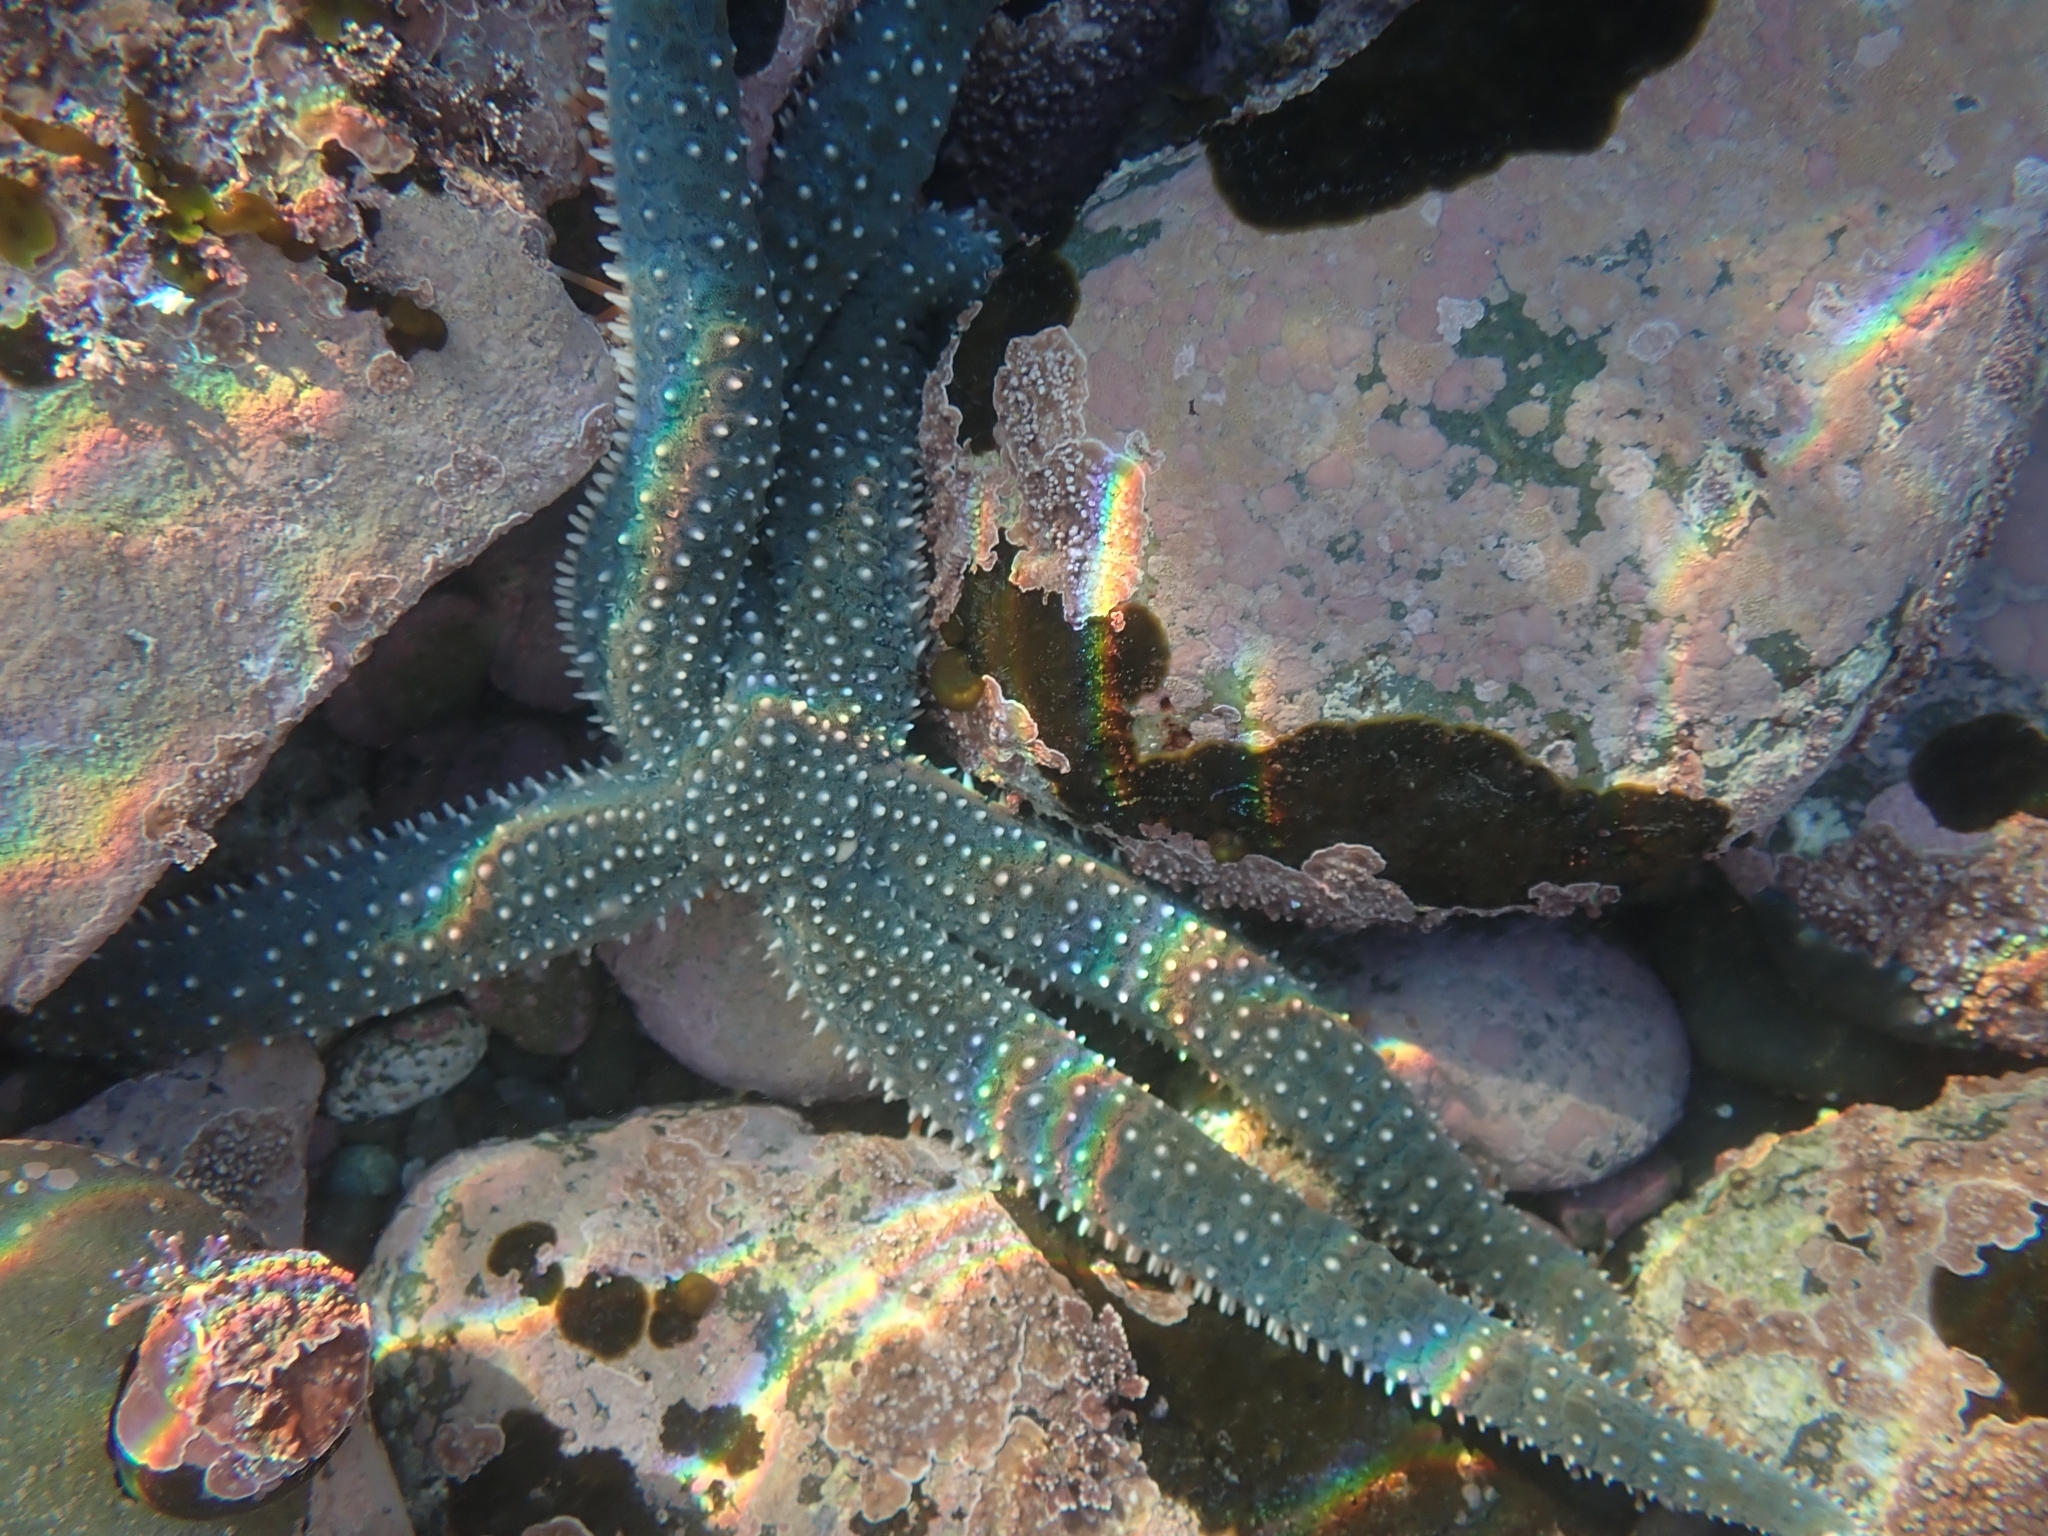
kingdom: Animalia
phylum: Echinodermata
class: Asteroidea
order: Forcipulatida
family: Asteriidae
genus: Astrostole
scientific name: Astrostole scabra
